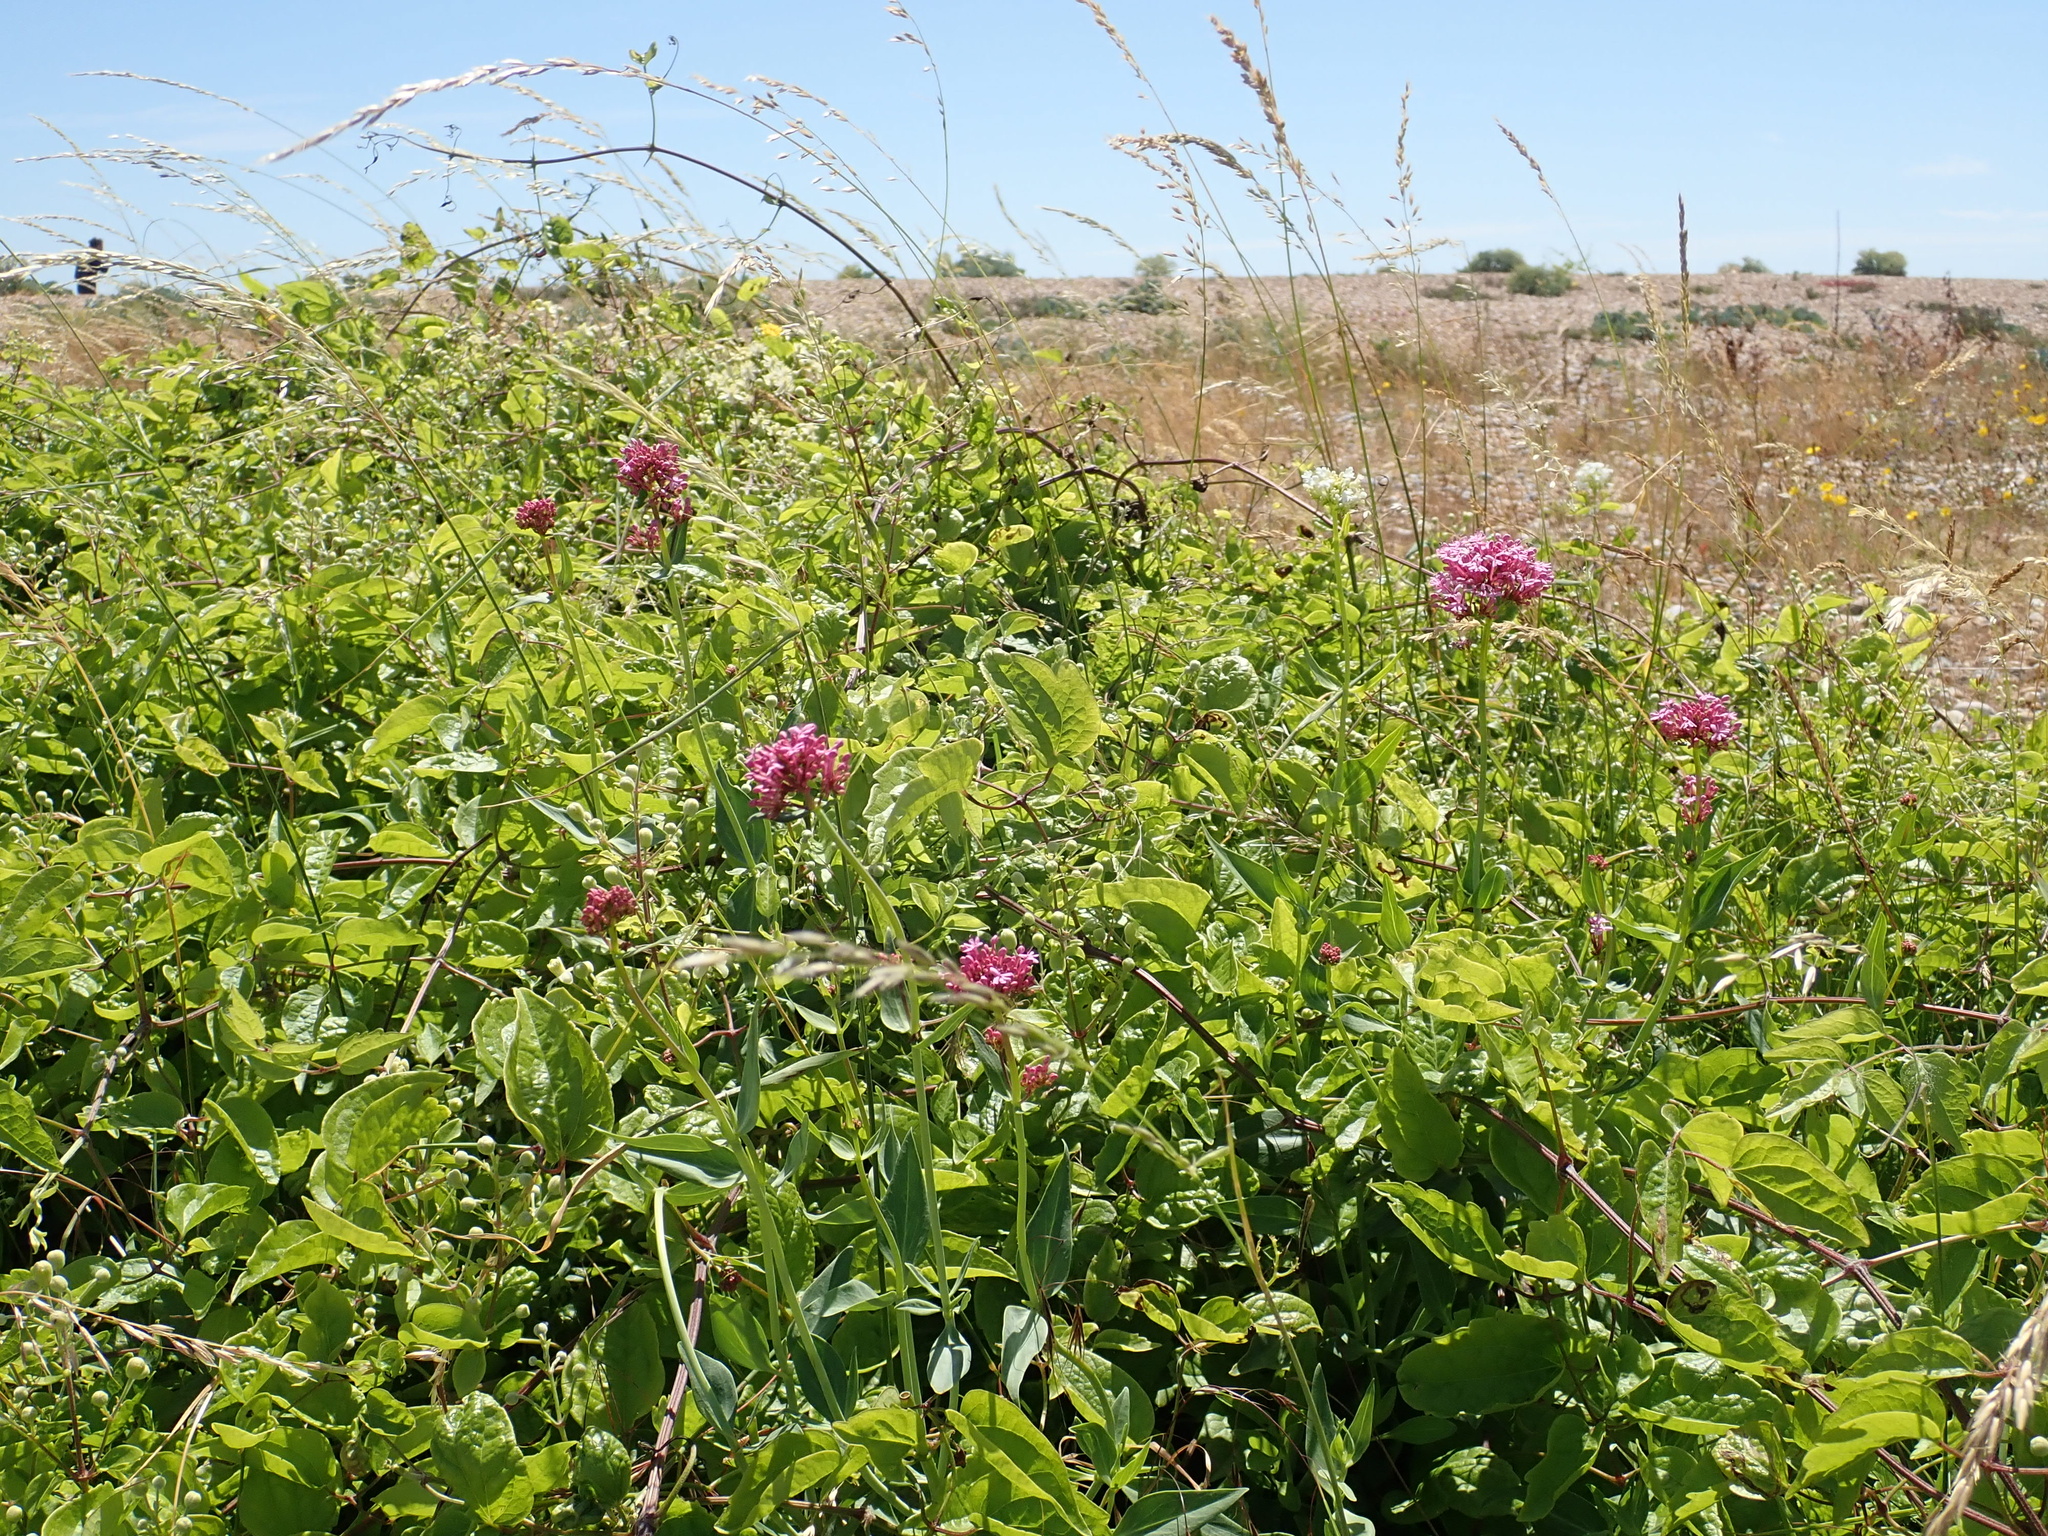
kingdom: Plantae
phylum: Tracheophyta
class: Magnoliopsida
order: Dipsacales
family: Caprifoliaceae
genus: Centranthus
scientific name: Centranthus ruber
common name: Red valerian
